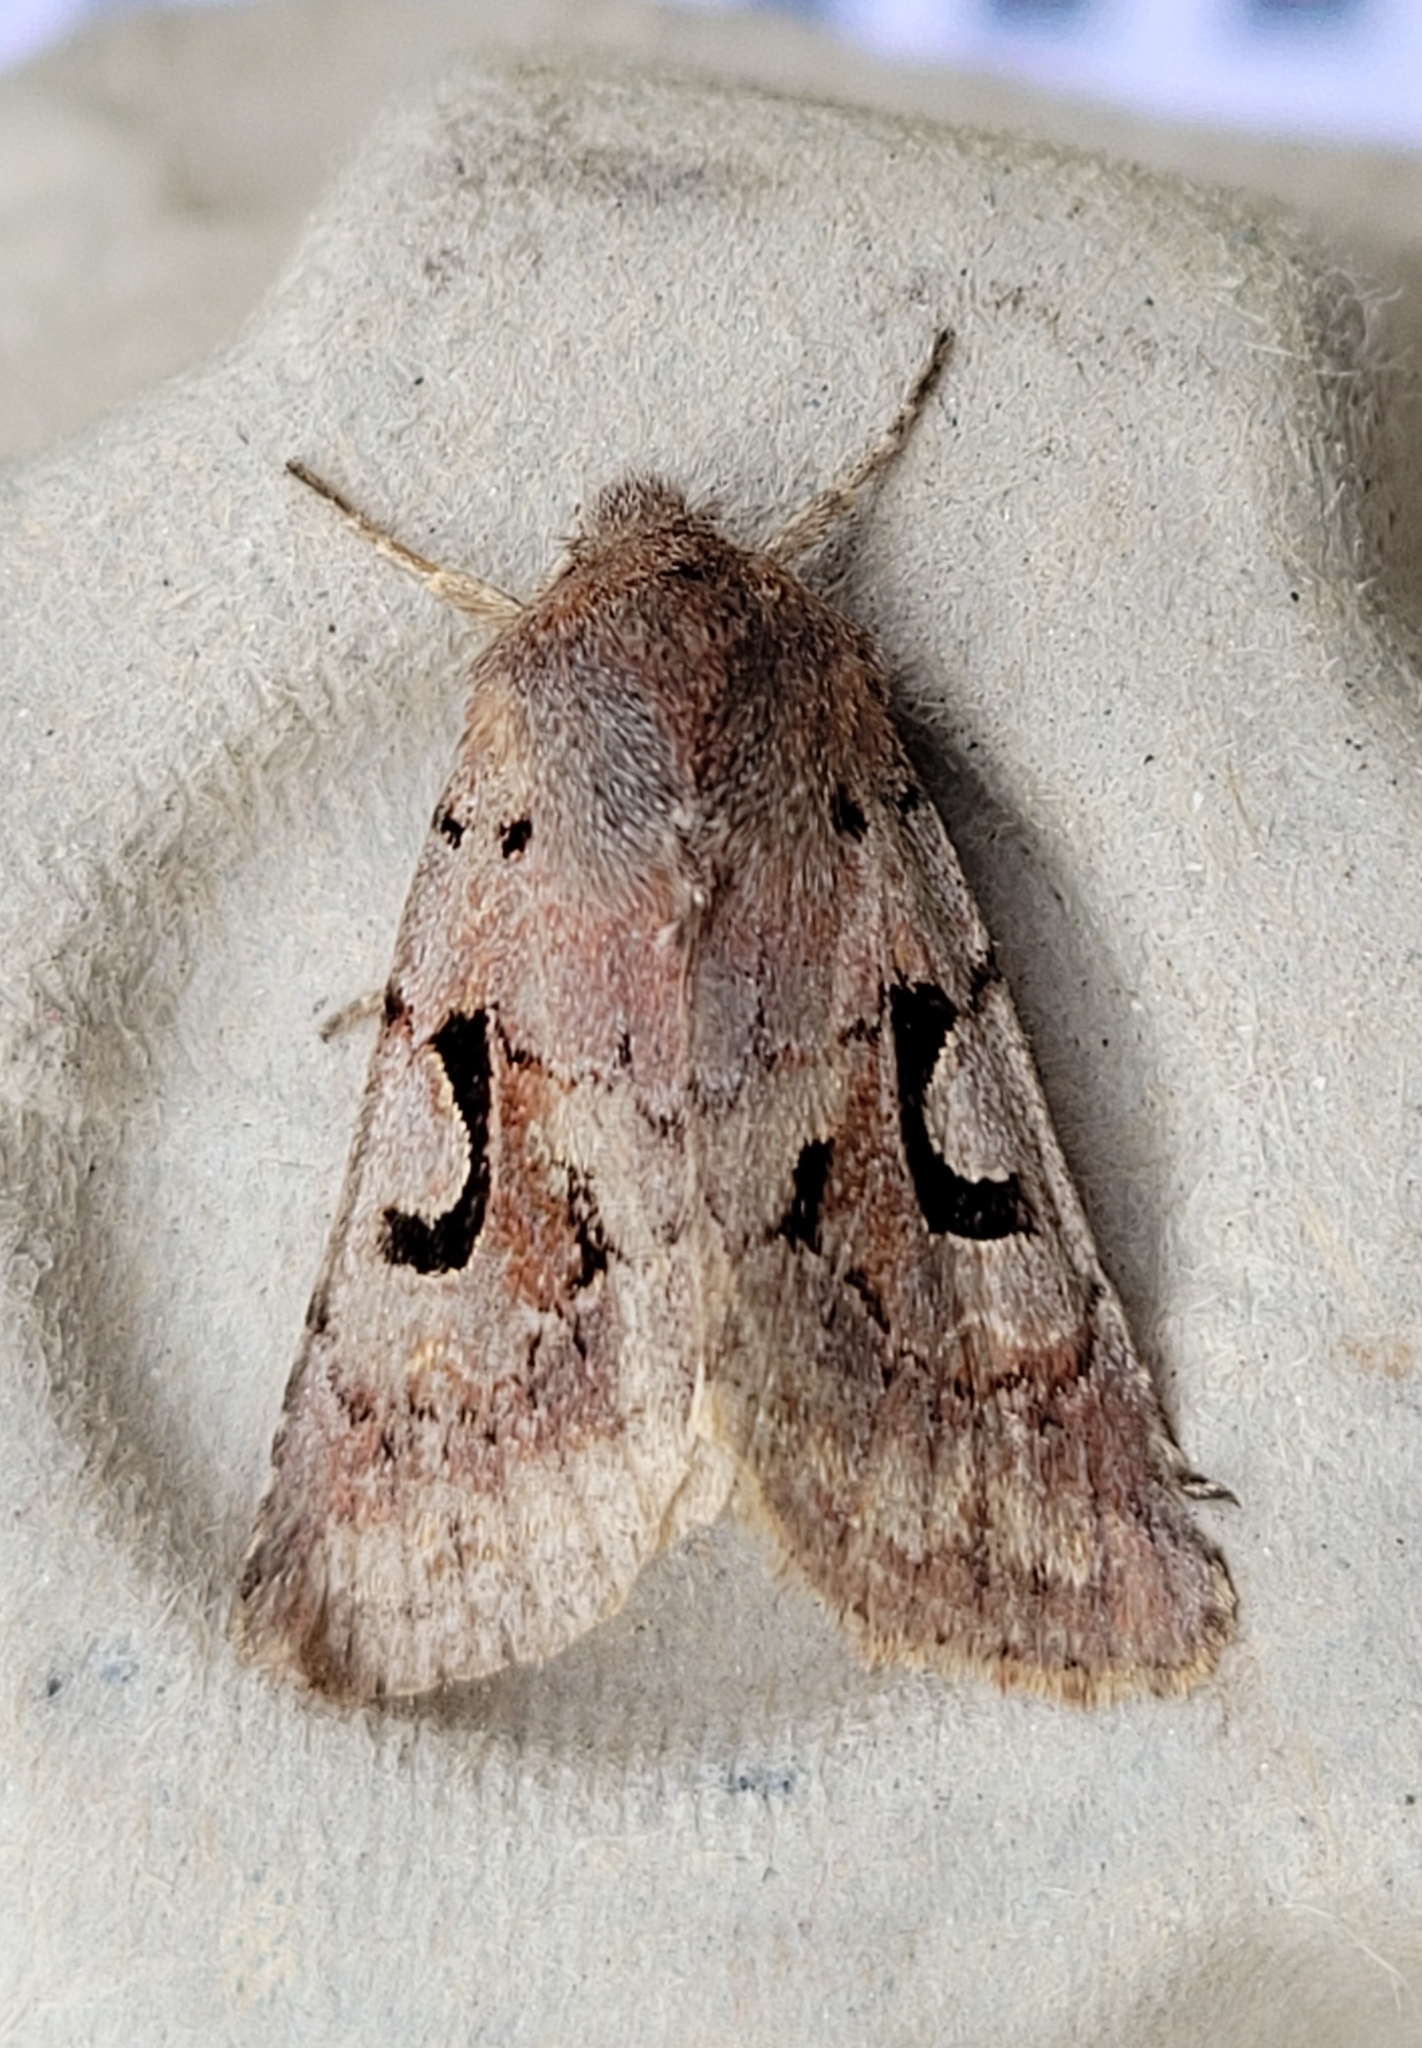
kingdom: Animalia
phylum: Arthropoda
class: Insecta
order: Lepidoptera
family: Noctuidae
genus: Orthosia
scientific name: Orthosia gothica
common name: Hebrew character
